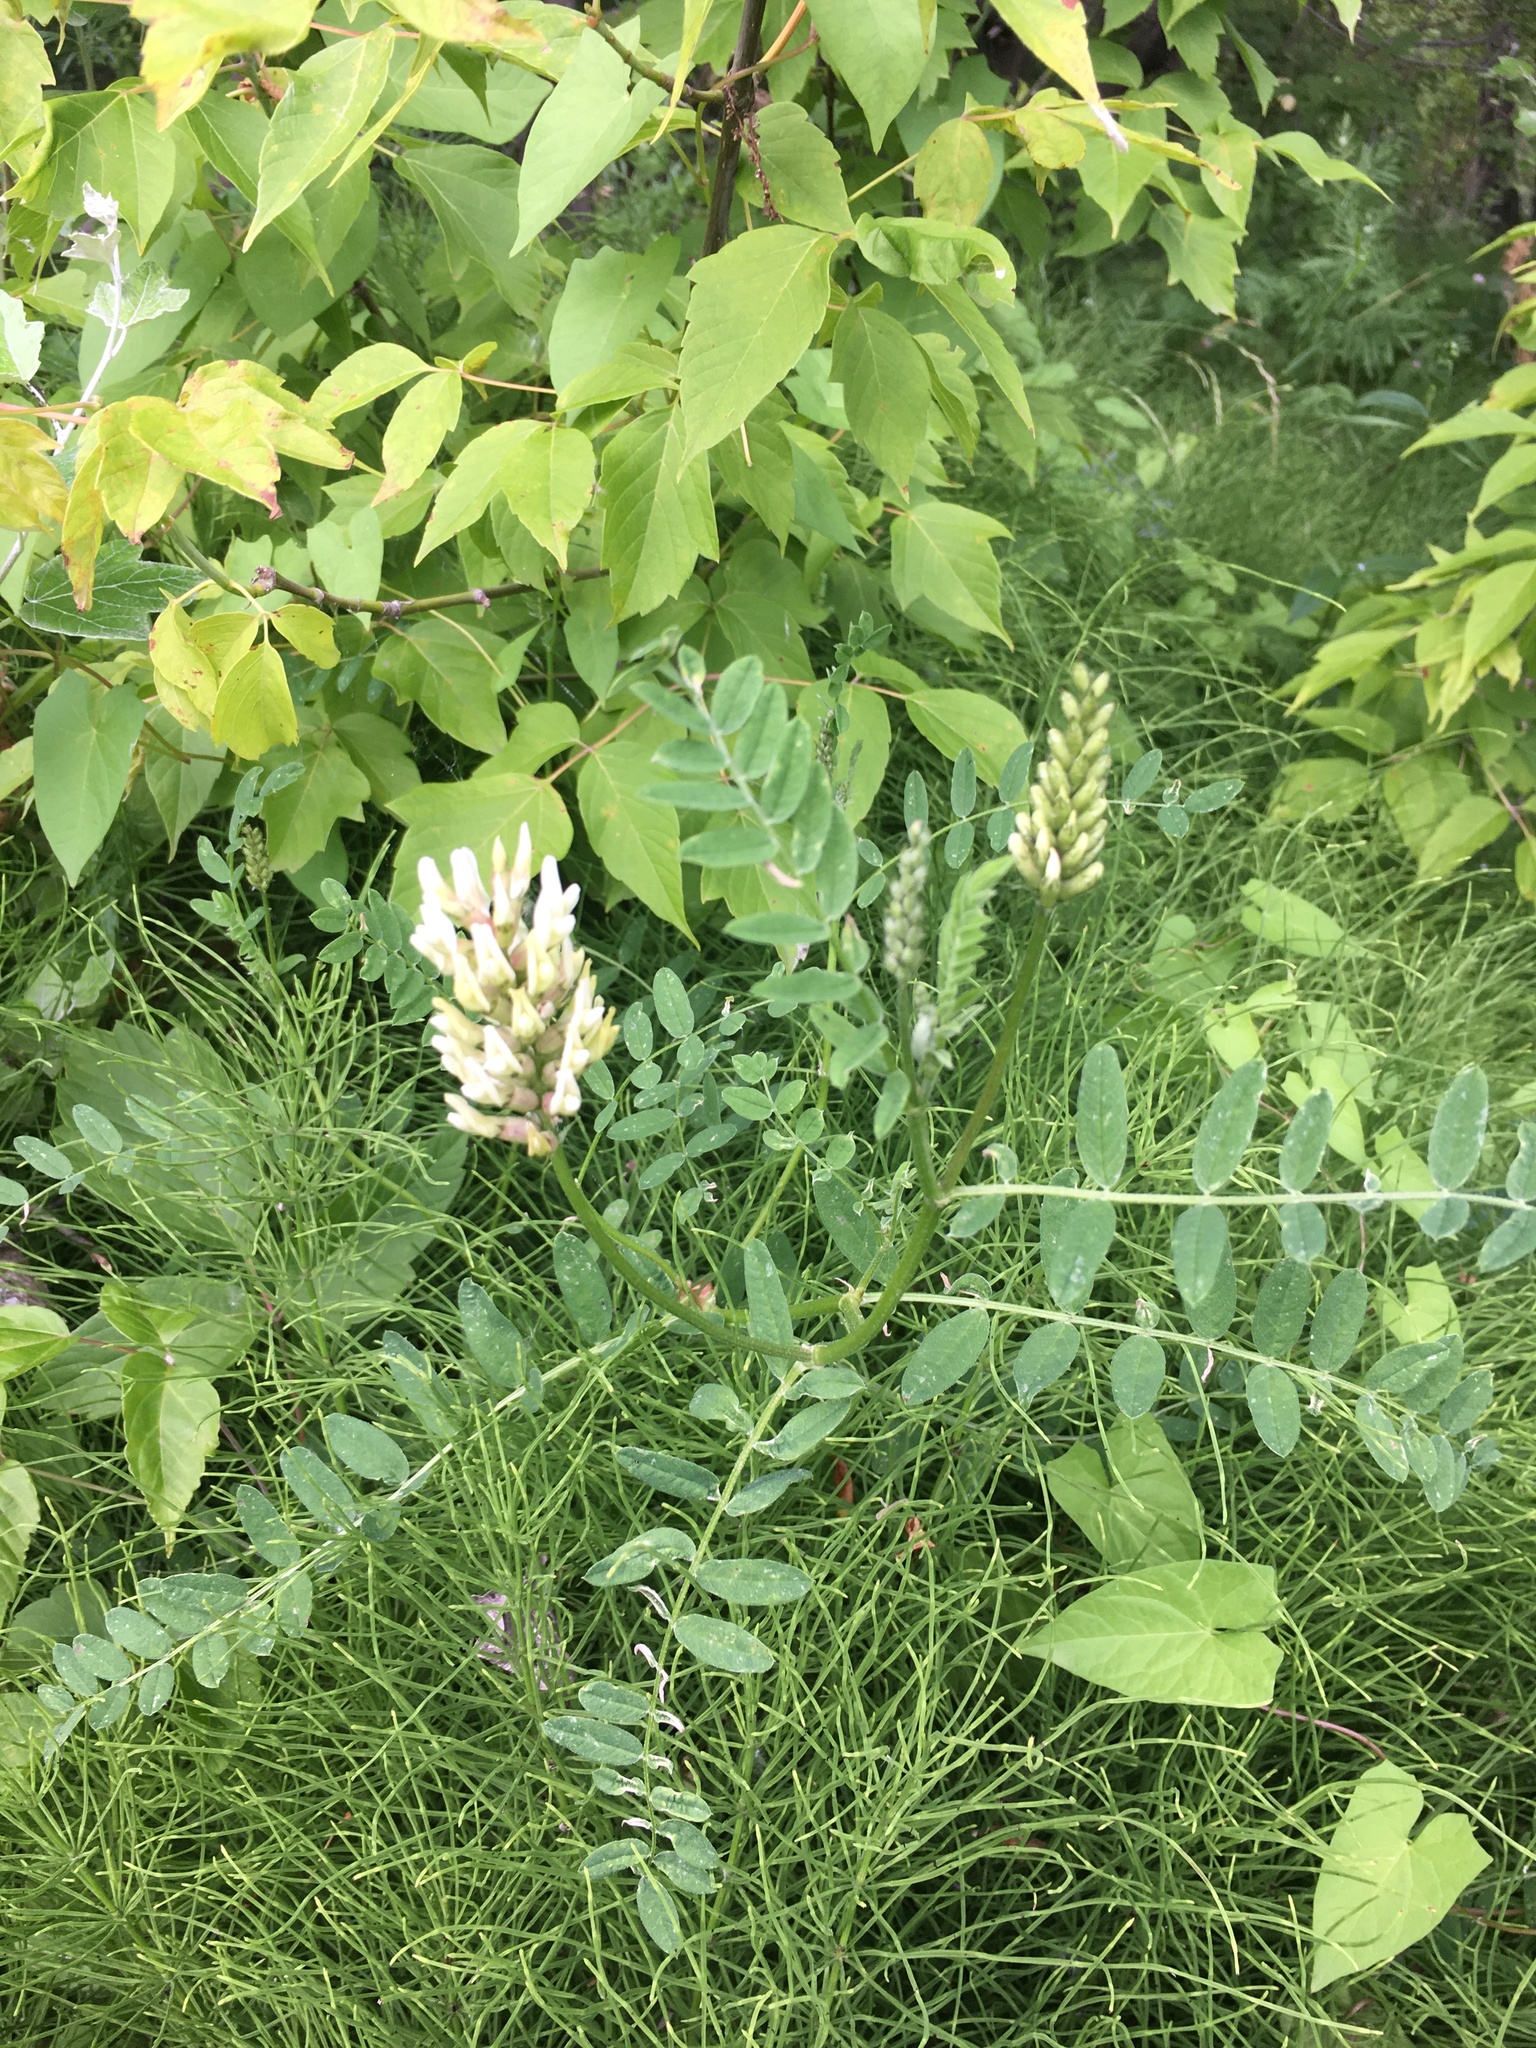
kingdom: Plantae
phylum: Tracheophyta
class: Magnoliopsida
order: Fabales
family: Fabaceae
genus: Astragalus
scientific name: Astragalus cicer
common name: Chick-pea milk-vetch
